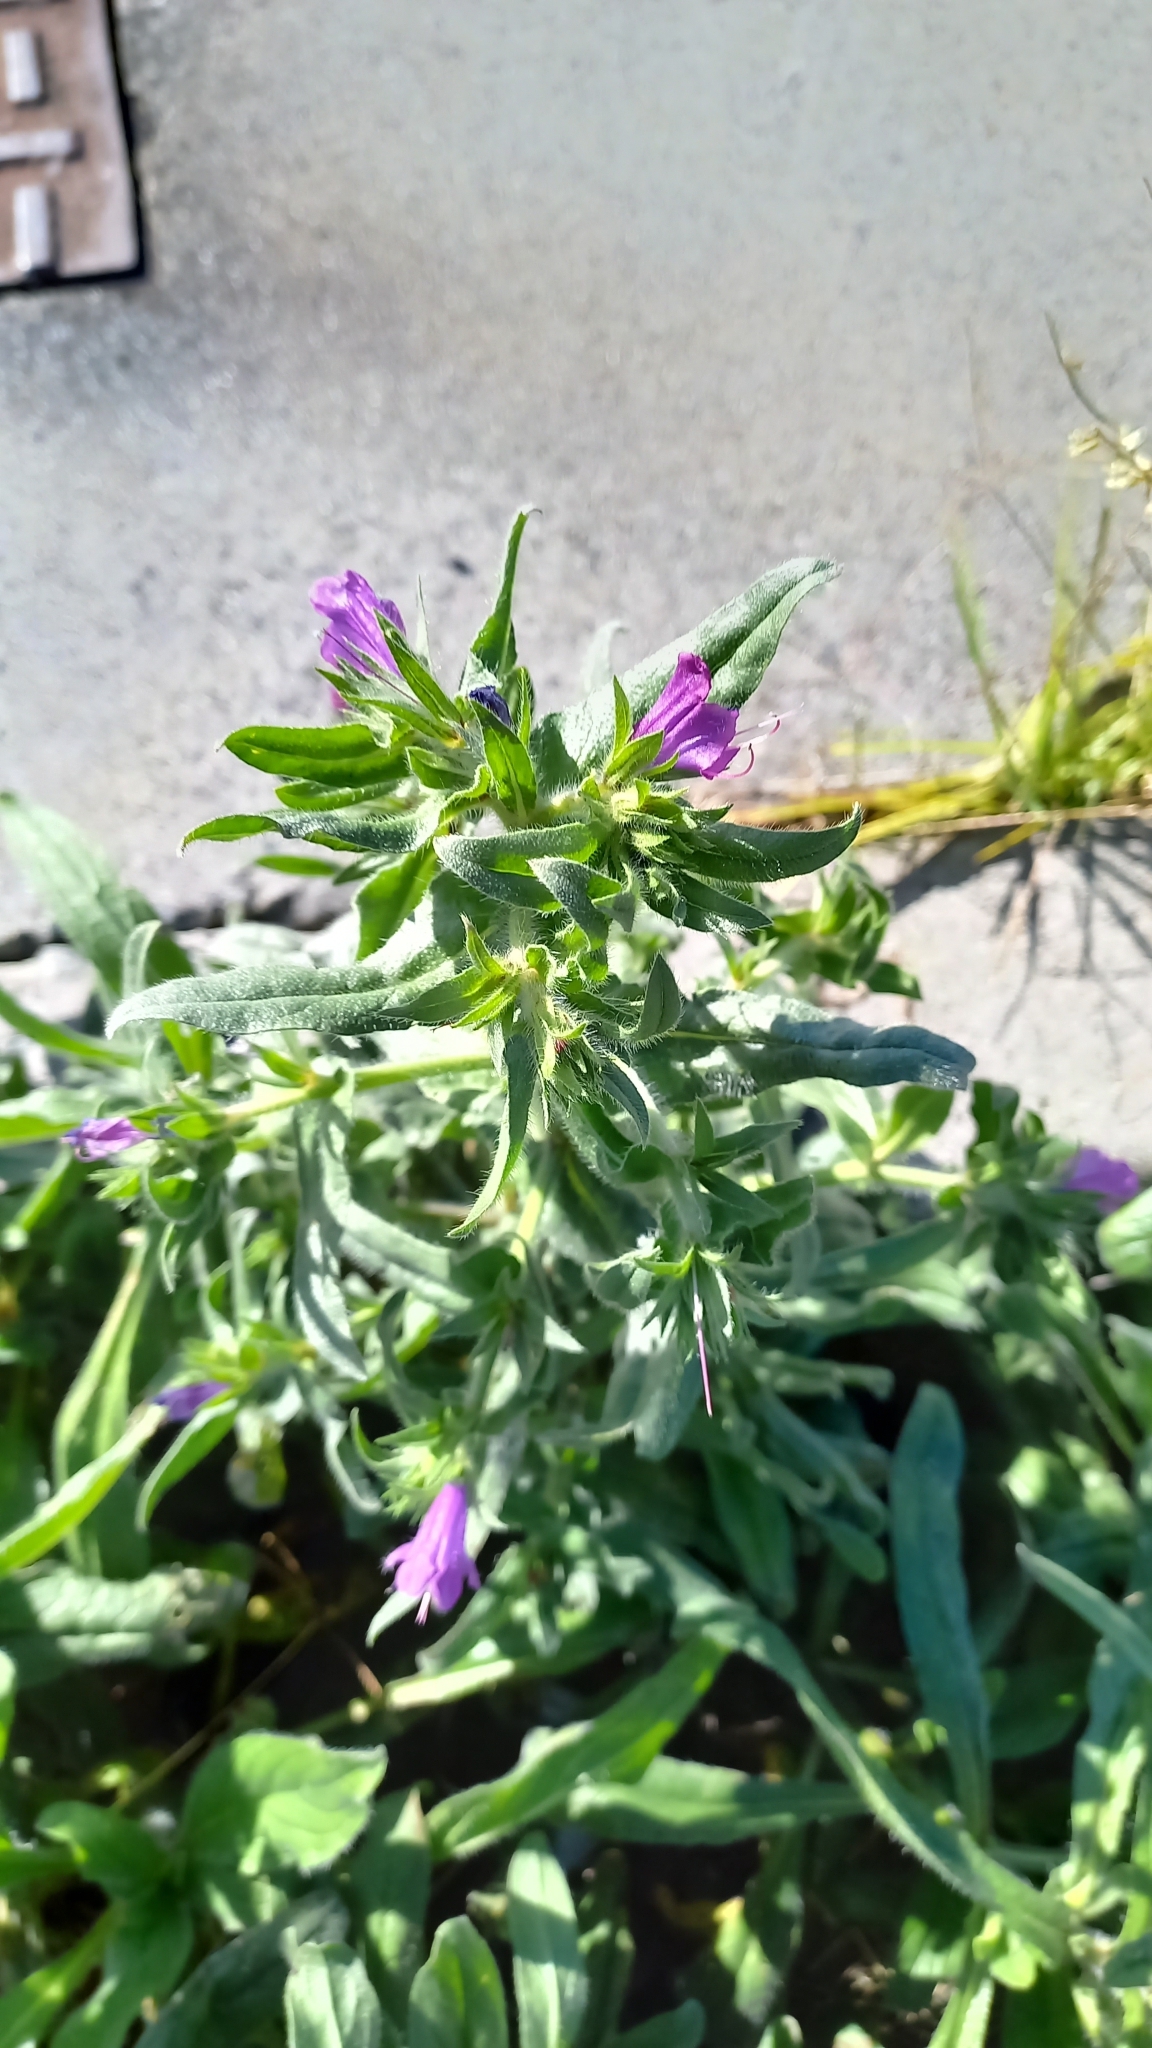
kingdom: Plantae
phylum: Tracheophyta
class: Magnoliopsida
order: Boraginales
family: Boraginaceae
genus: Echium
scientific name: Echium plantagineum
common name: Purple viper's-bugloss
